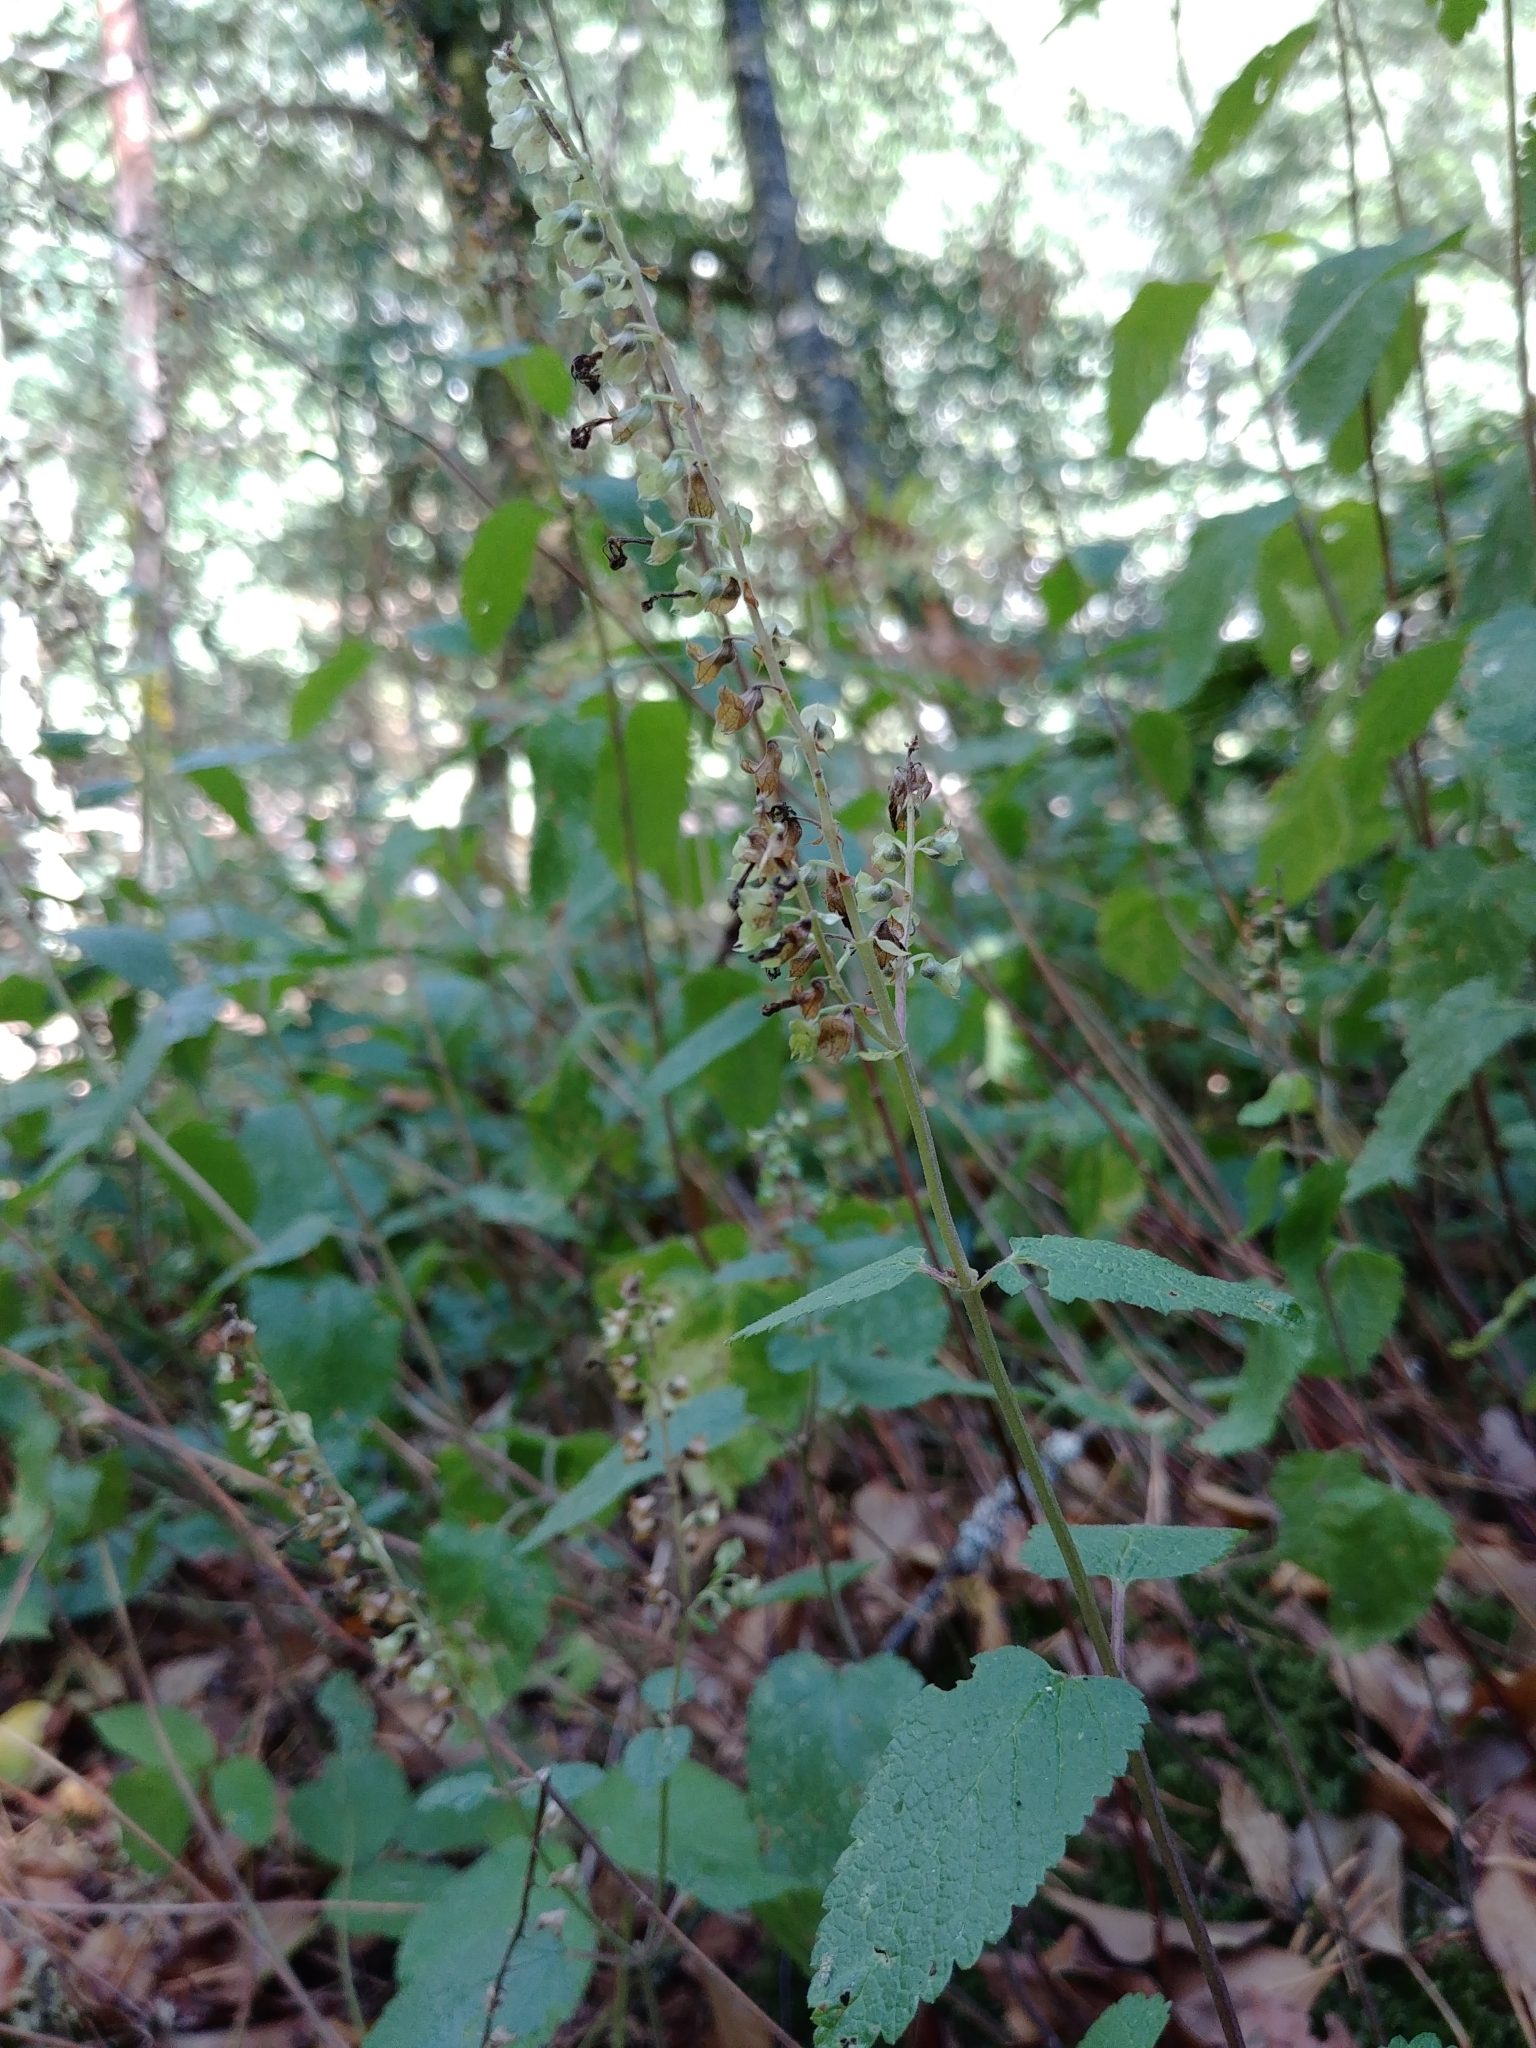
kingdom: Plantae
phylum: Tracheophyta
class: Magnoliopsida
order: Lamiales
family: Lamiaceae
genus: Teucrium
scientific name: Teucrium scorodonia
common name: Woodland germander
